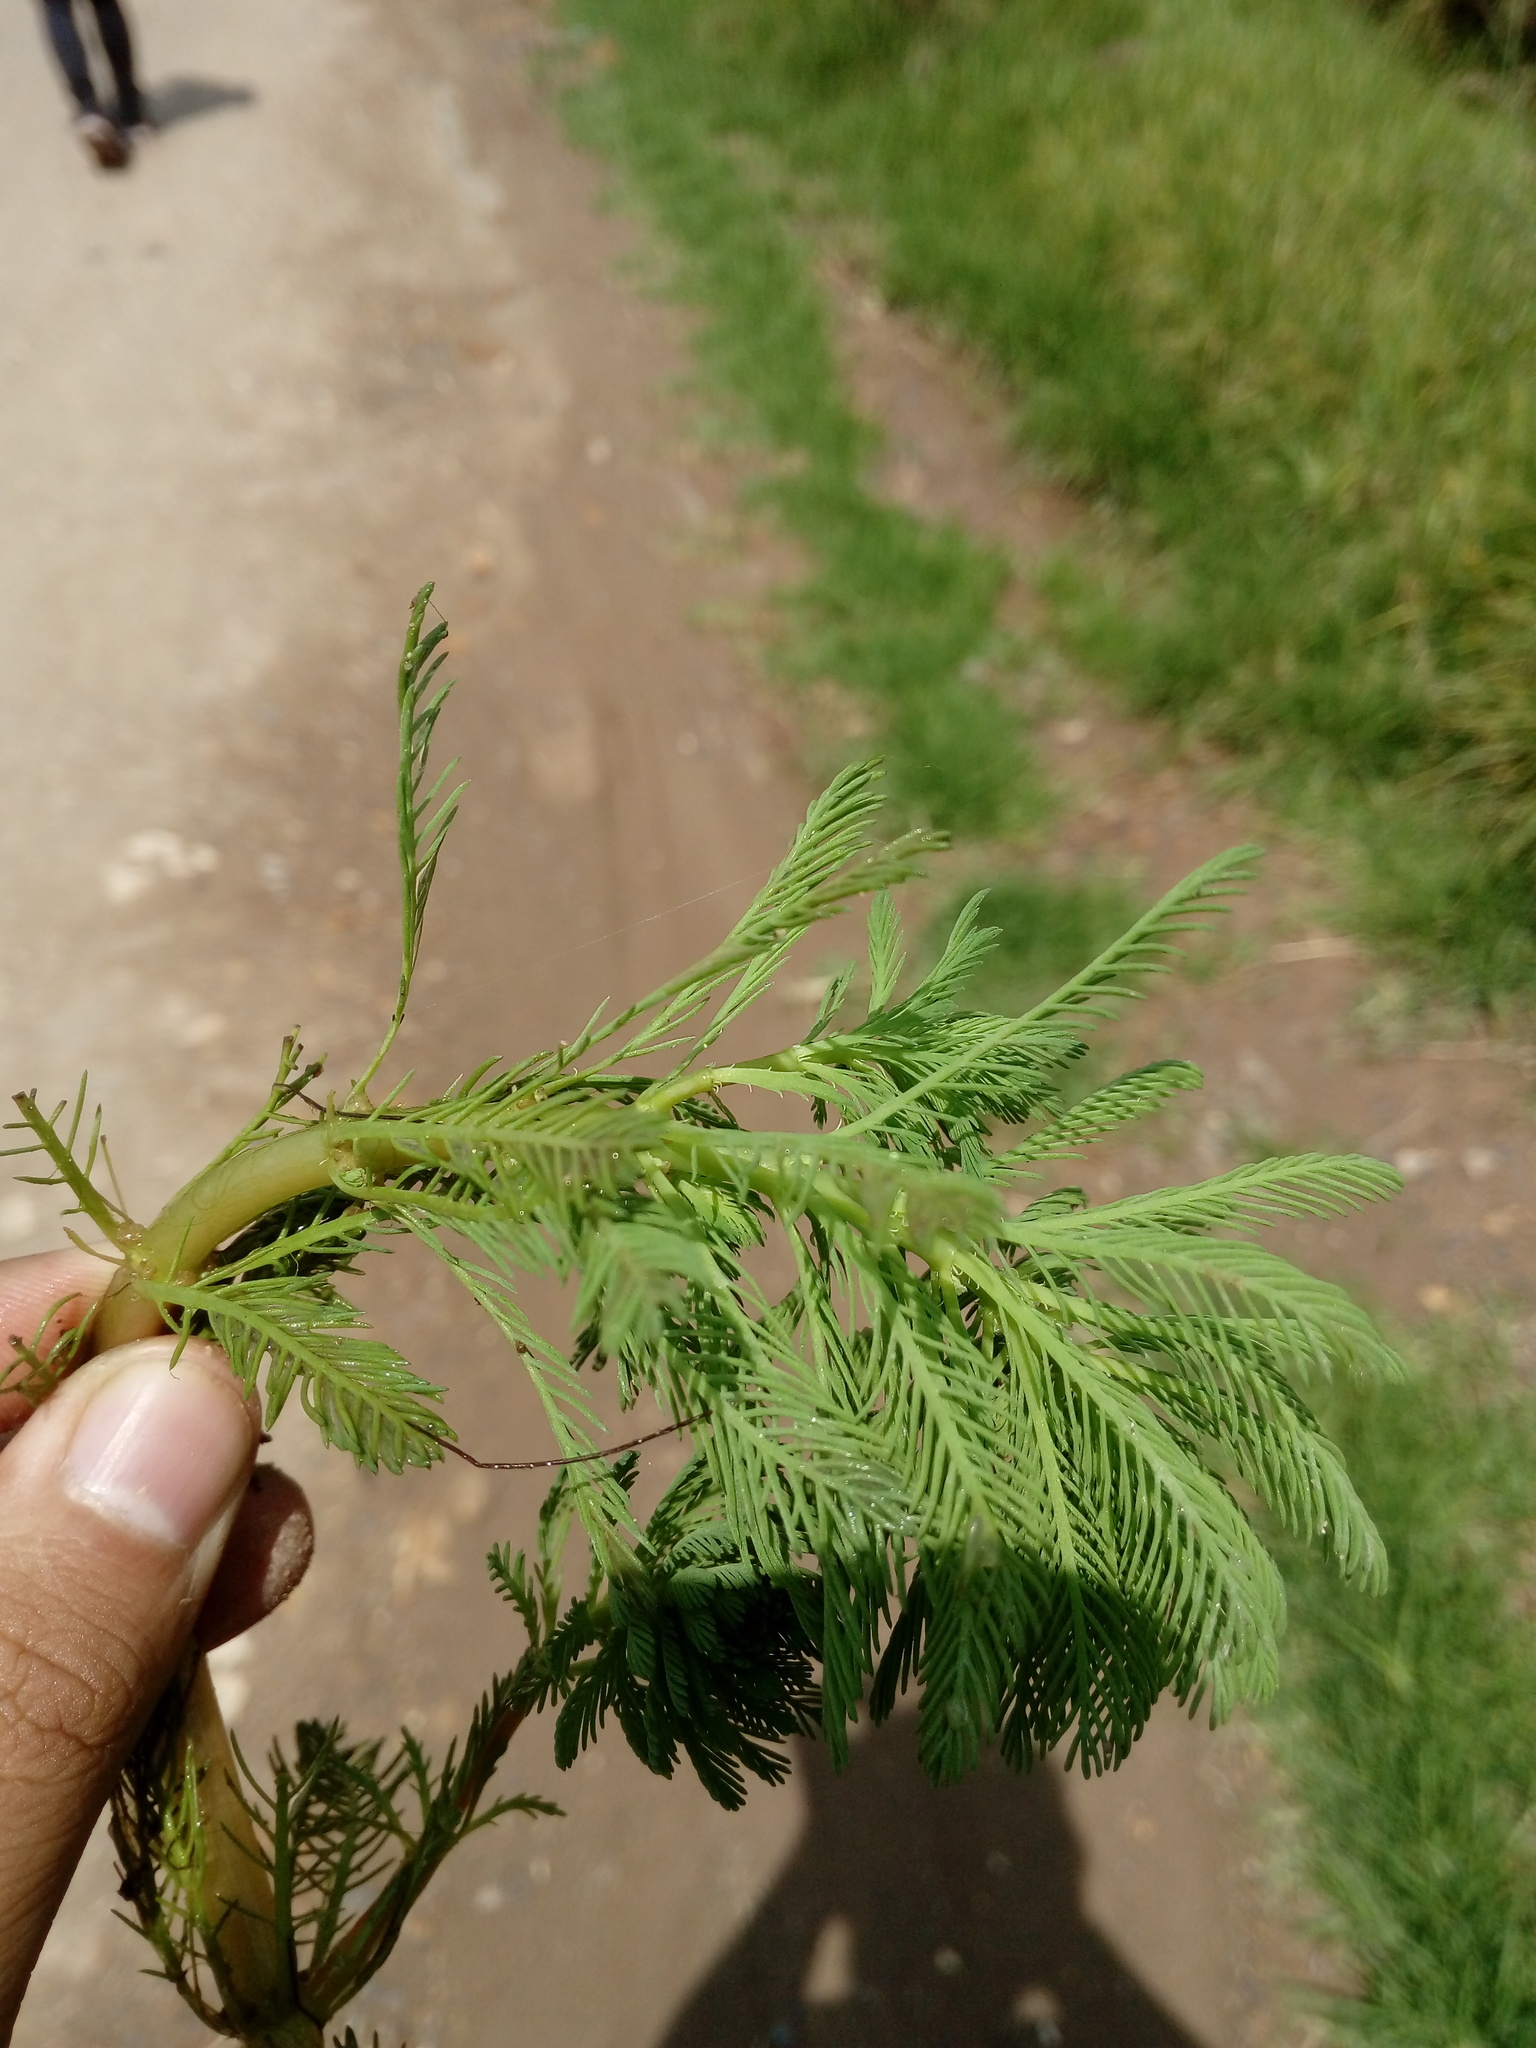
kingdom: Plantae
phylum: Tracheophyta
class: Magnoliopsida
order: Saxifragales
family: Haloragaceae
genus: Myriophyllum
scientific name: Myriophyllum aquaticum
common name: Parrot's feather
